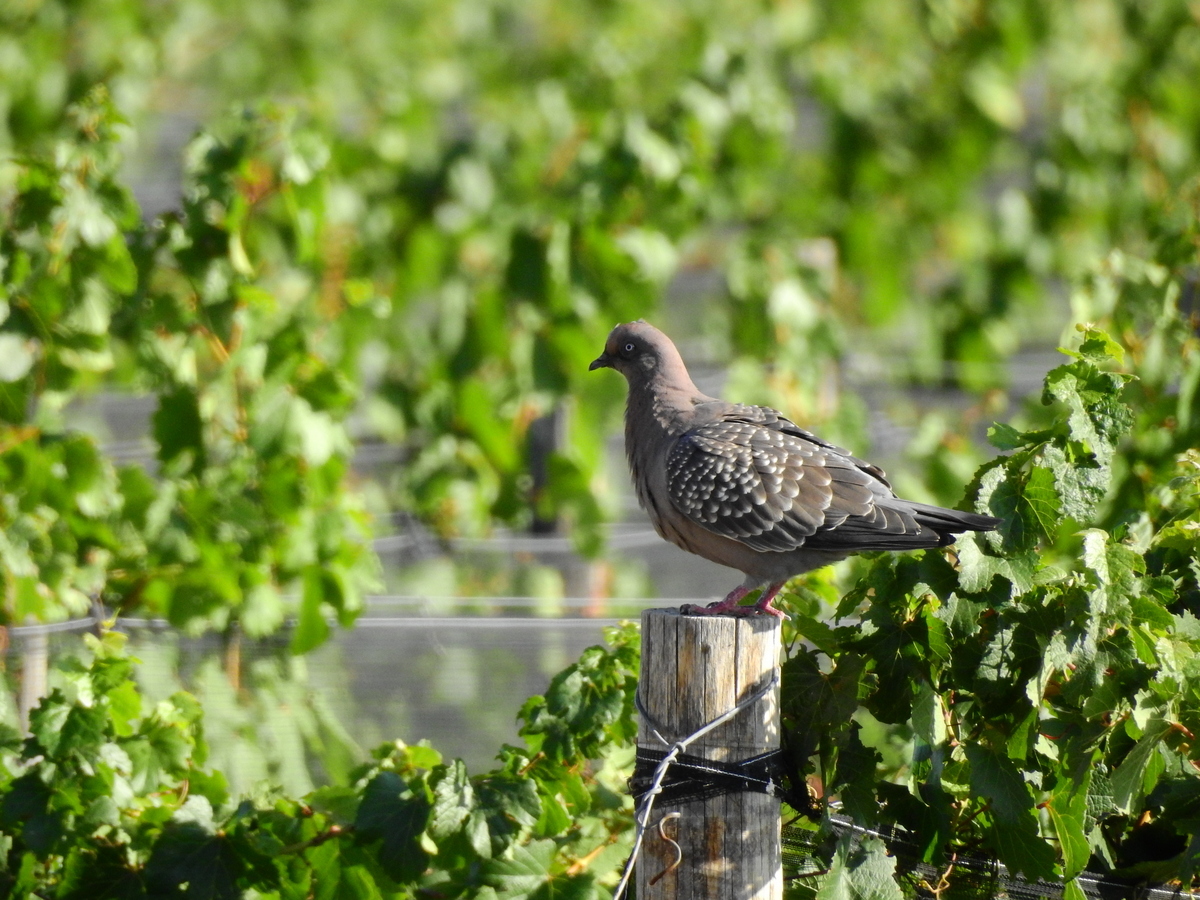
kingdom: Animalia
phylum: Chordata
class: Aves
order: Columbiformes
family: Columbidae
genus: Patagioenas
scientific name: Patagioenas maculosa
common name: Spot-winged pigeon
